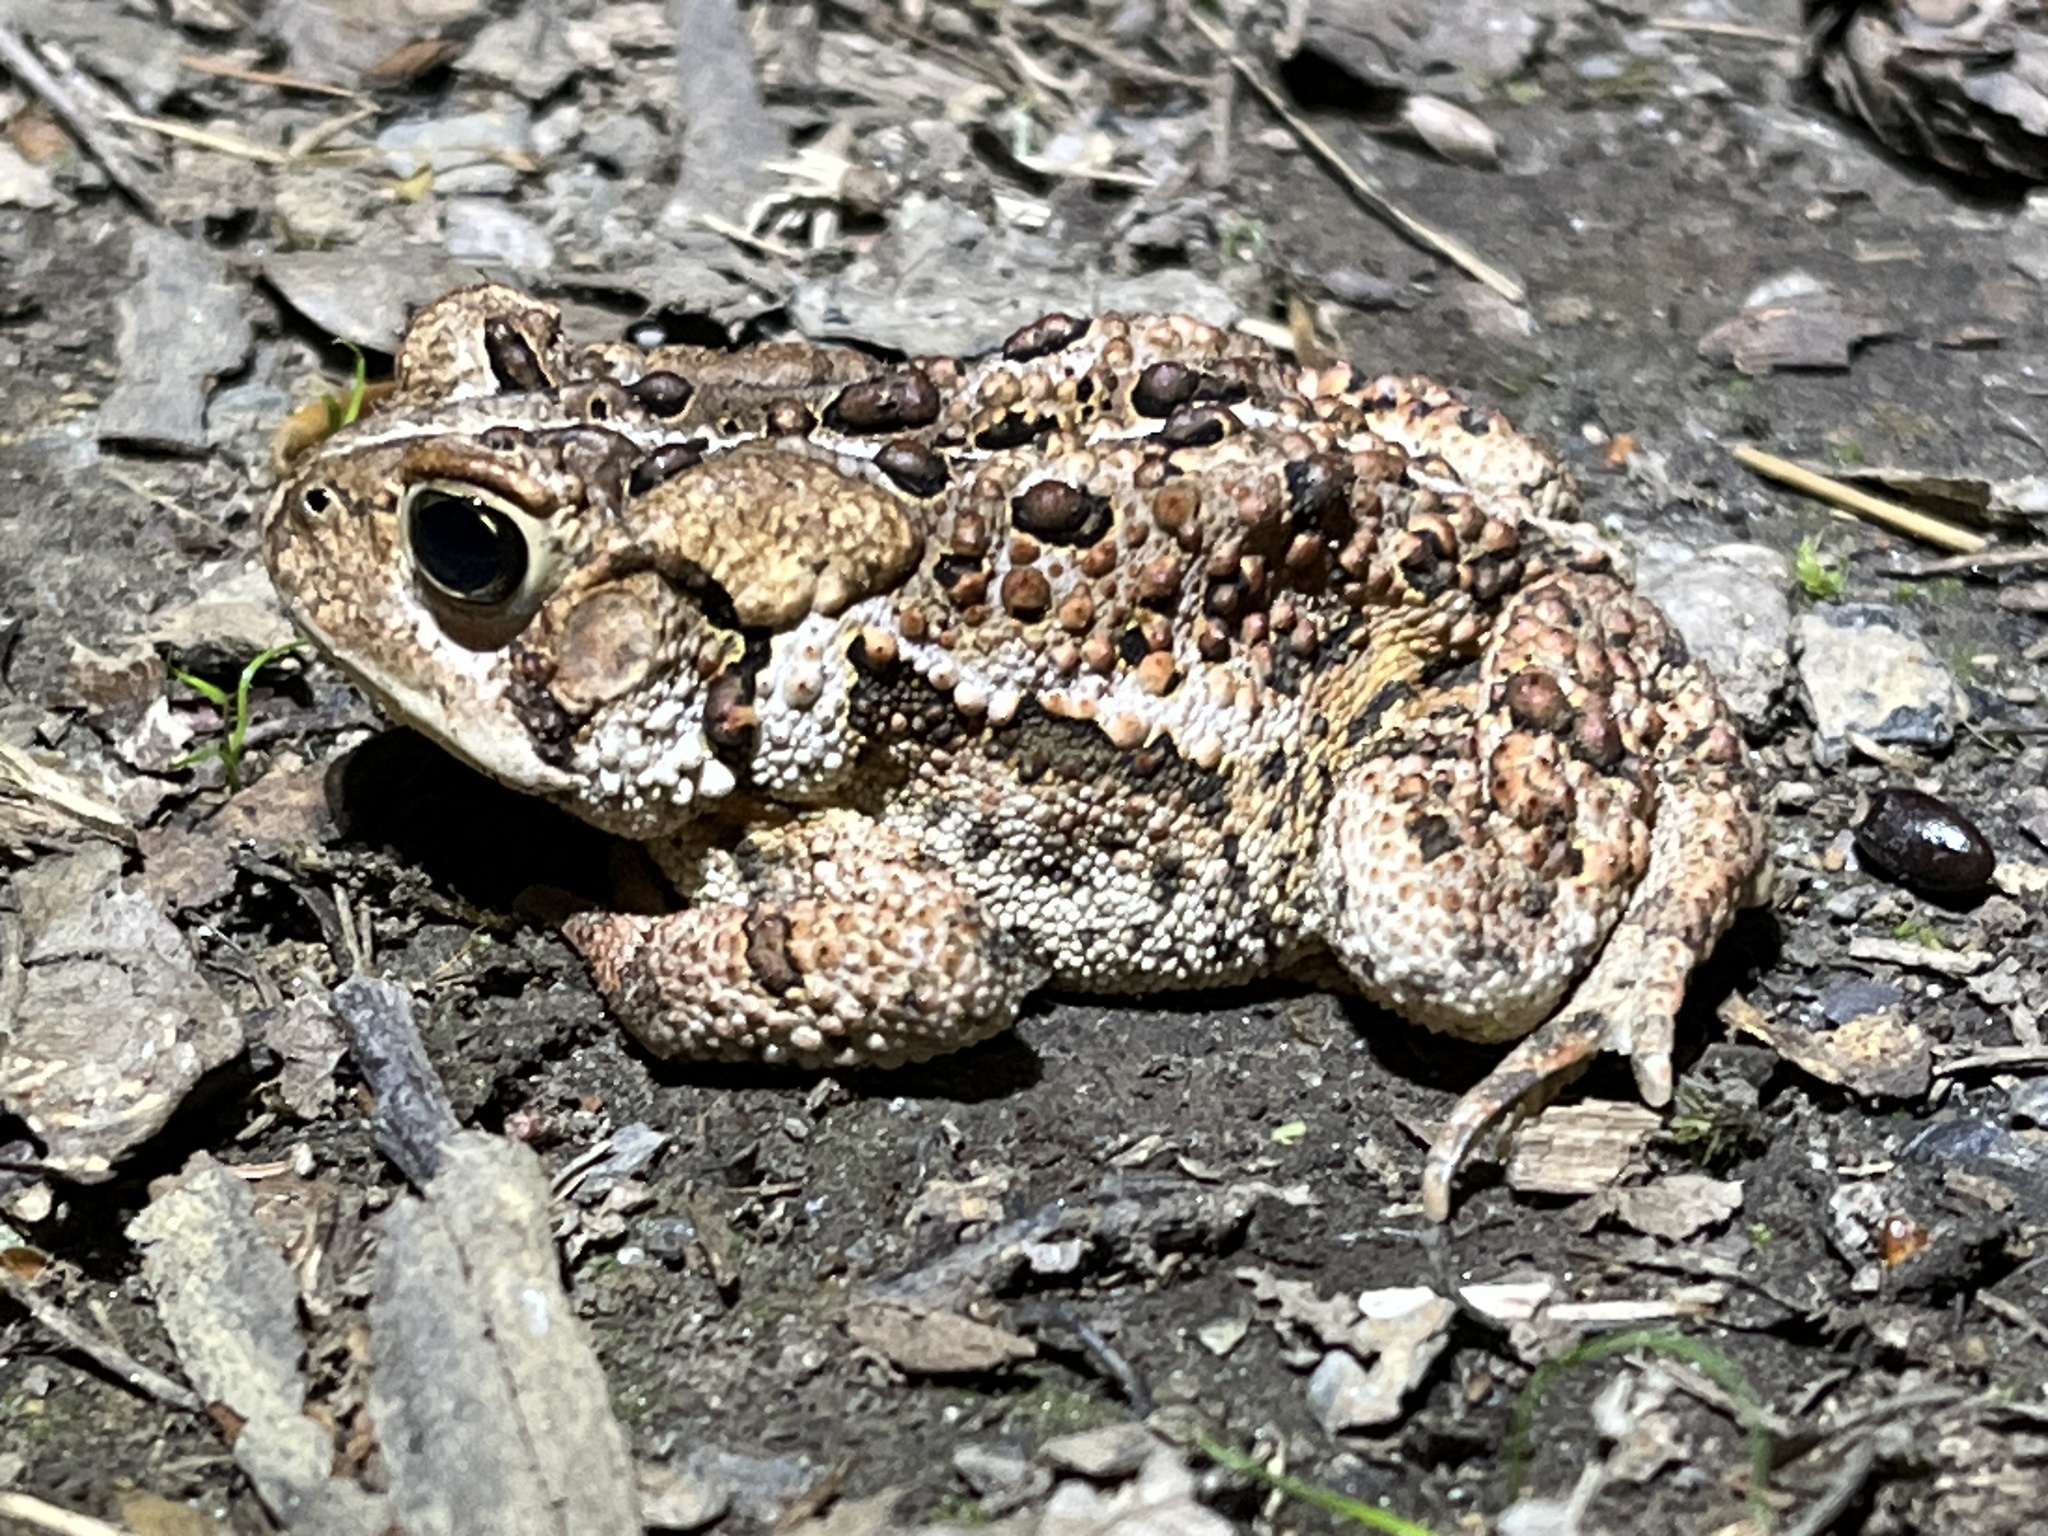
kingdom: Animalia
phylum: Chordata
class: Amphibia
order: Anura
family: Bufonidae
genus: Anaxyrus
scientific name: Anaxyrus americanus
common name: American toad
